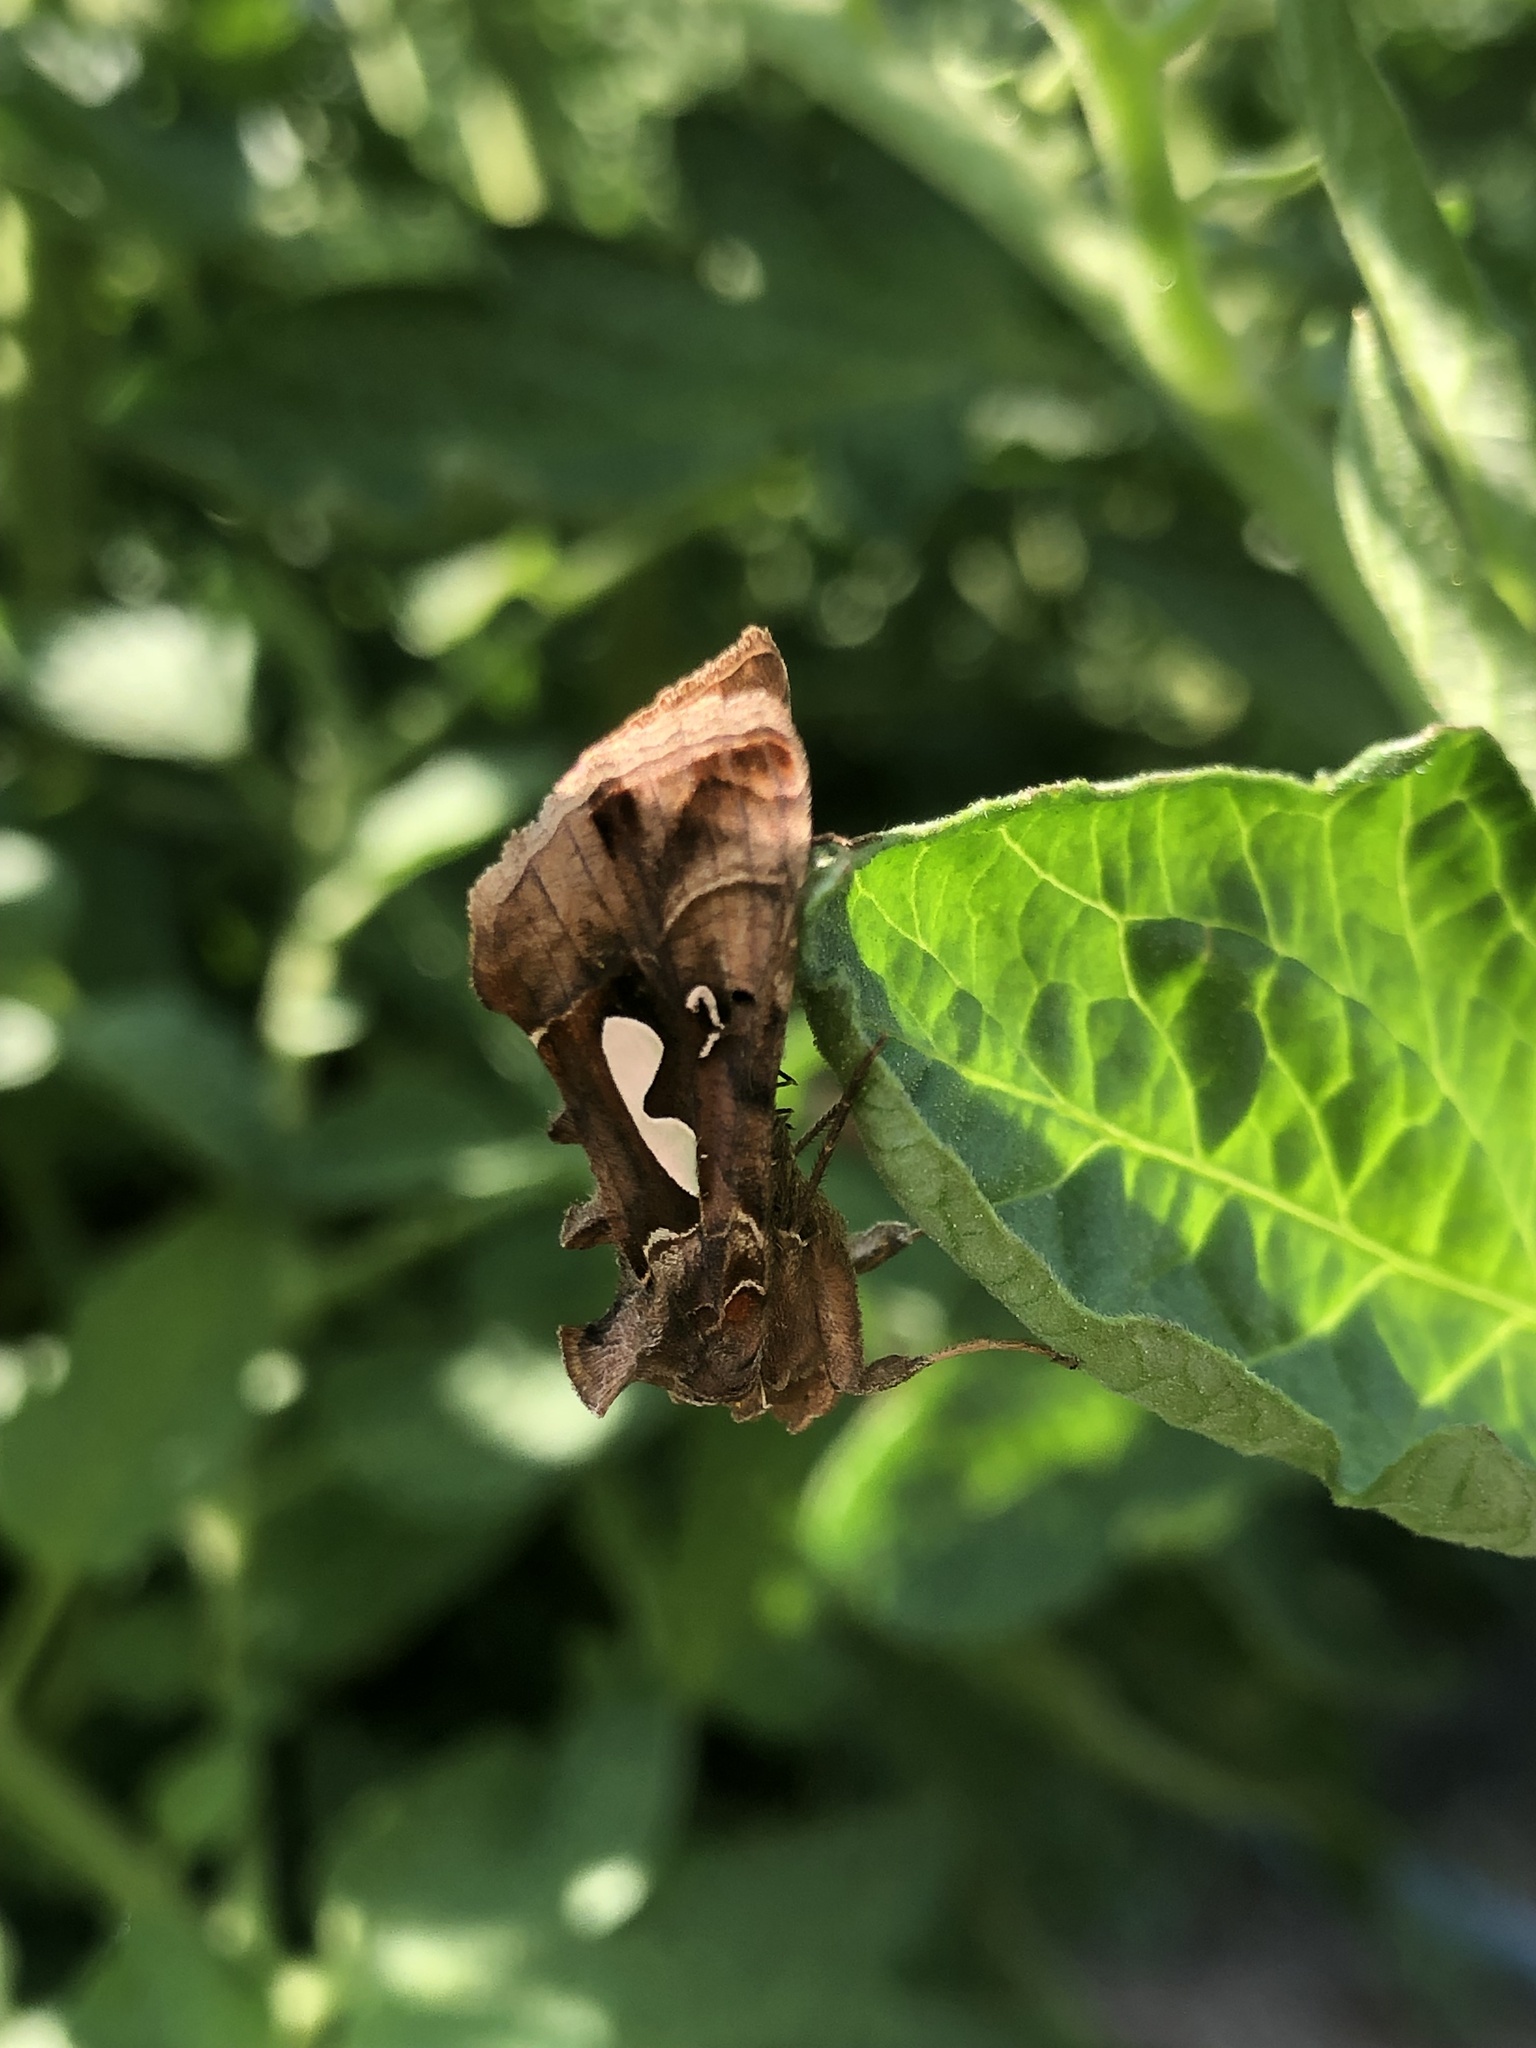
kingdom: Animalia
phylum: Arthropoda
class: Insecta
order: Lepidoptera
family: Noctuidae
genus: Megalographa
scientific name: Megalographa biloba
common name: Cutworm
